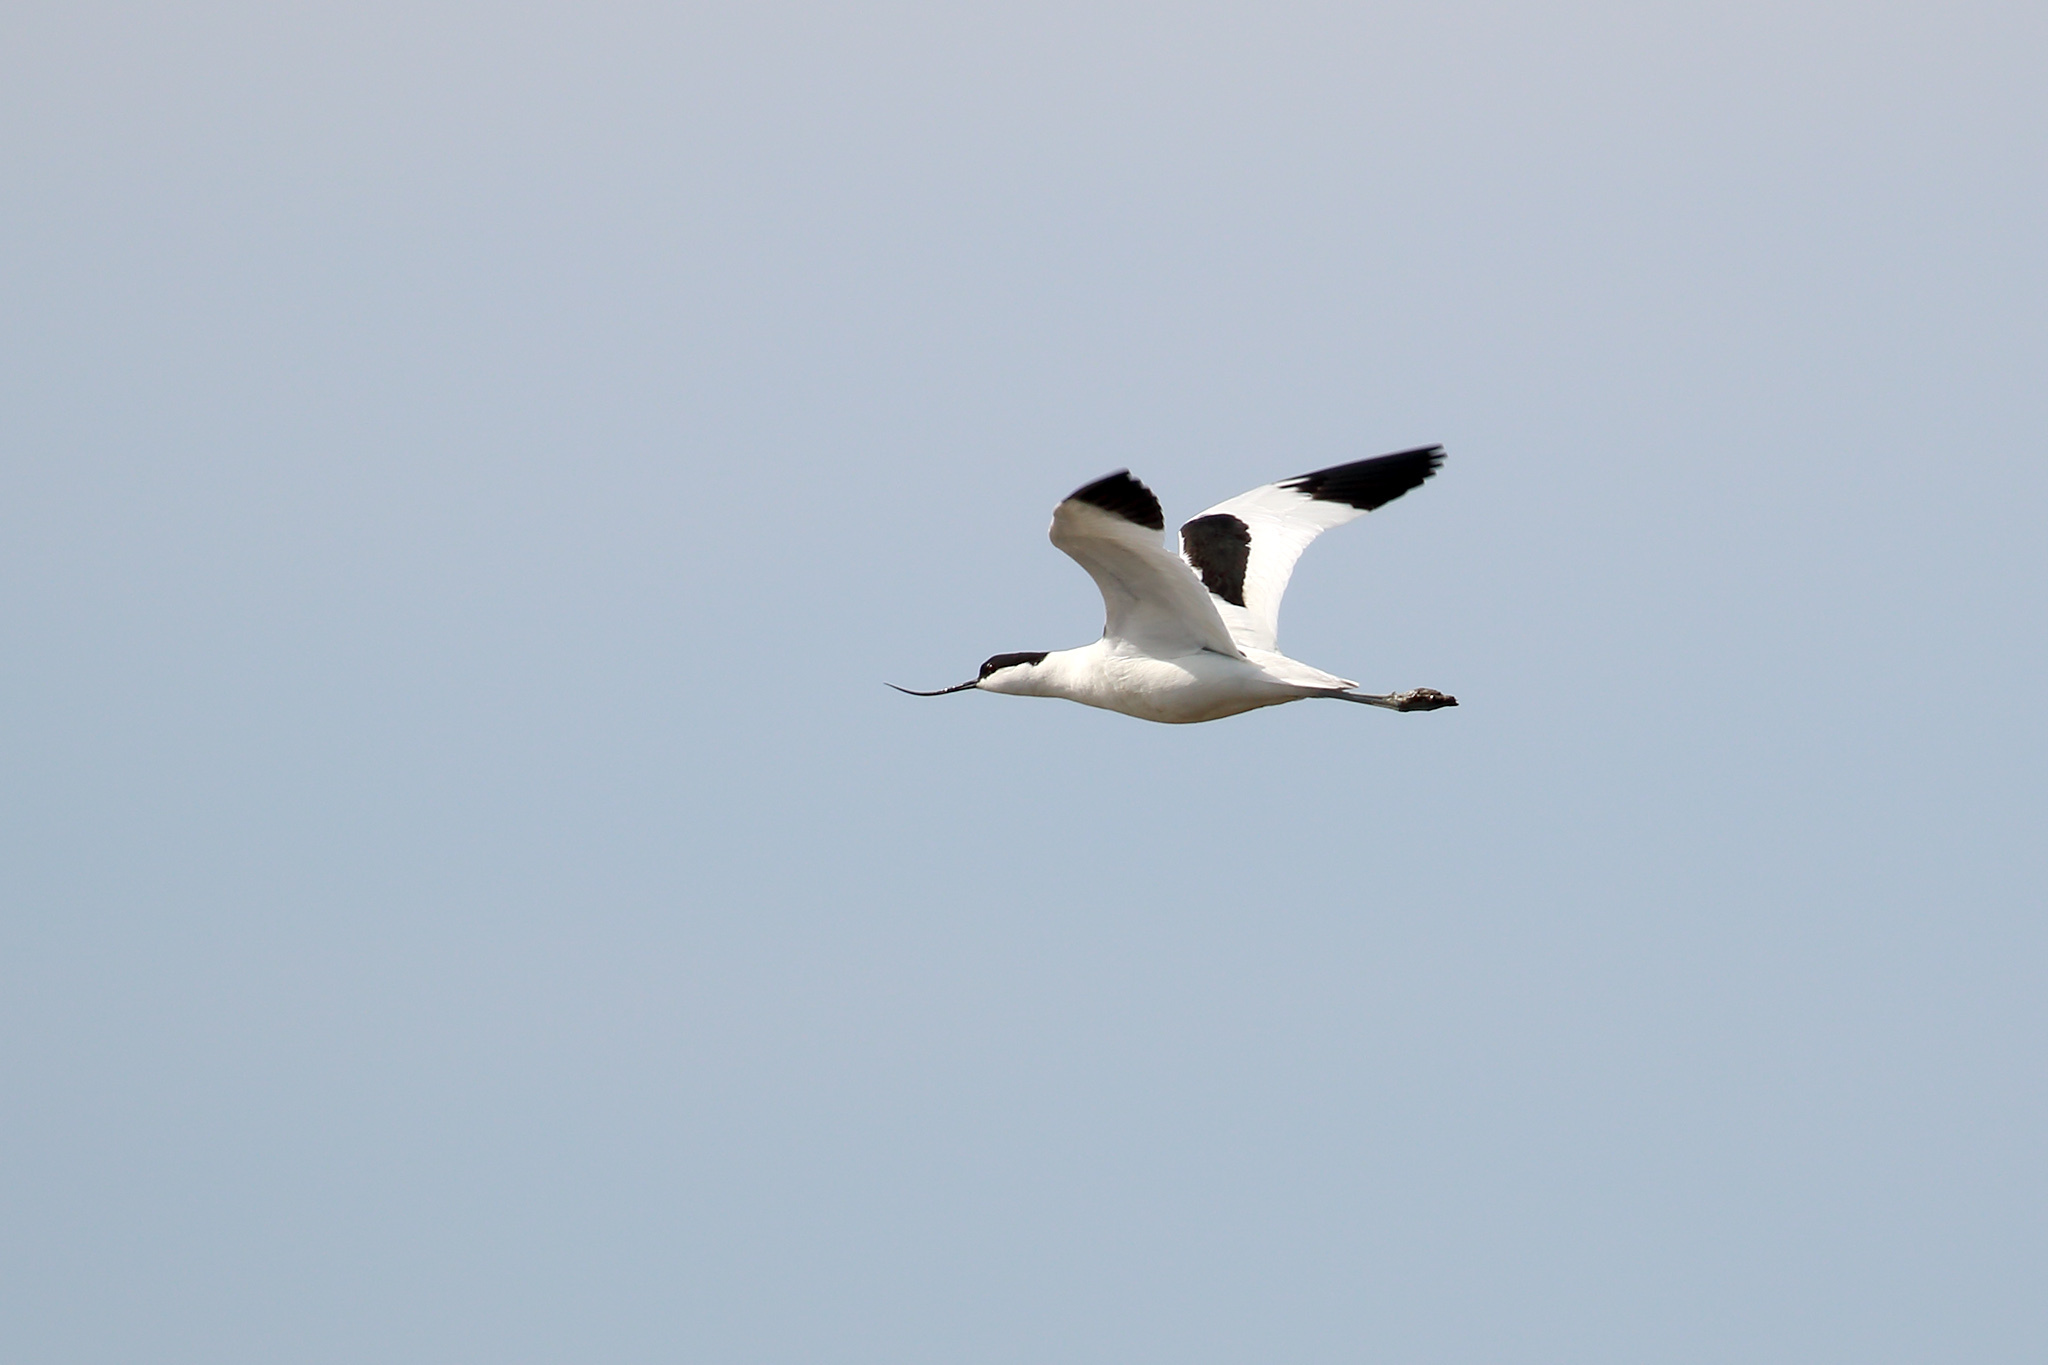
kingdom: Animalia
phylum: Chordata
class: Aves
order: Charadriiformes
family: Recurvirostridae
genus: Recurvirostra
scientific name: Recurvirostra avosetta
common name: Pied avocet
